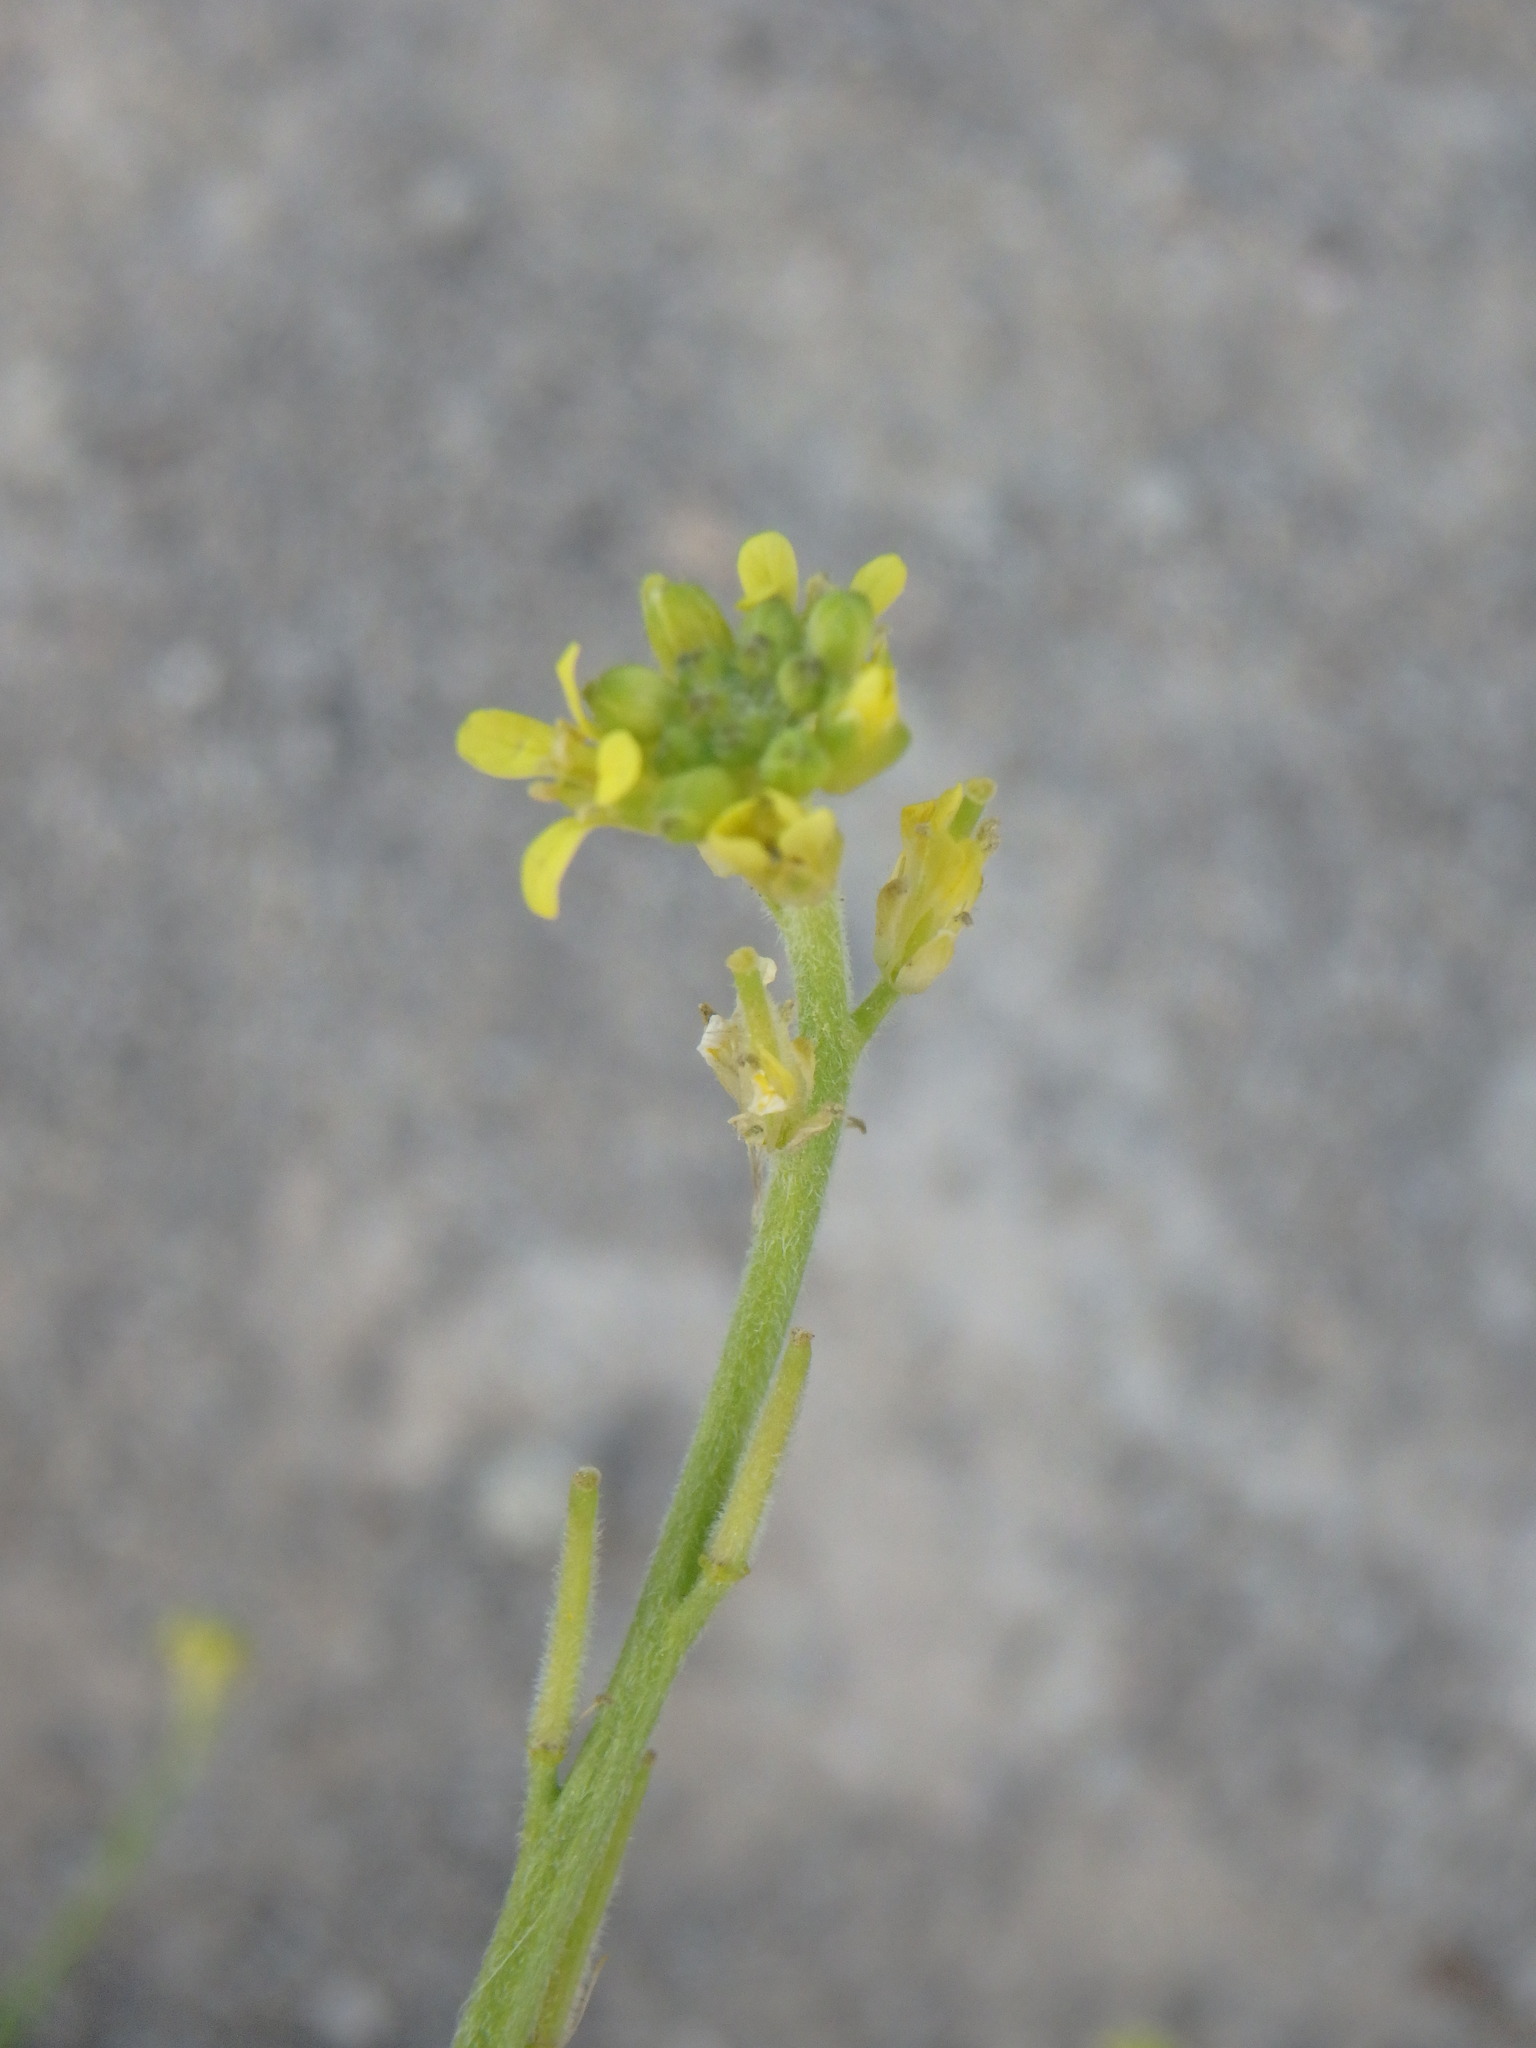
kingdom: Plantae
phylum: Tracheophyta
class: Magnoliopsida
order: Brassicales
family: Brassicaceae
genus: Sisymbrium
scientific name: Sisymbrium officinale
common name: Hedge mustard
